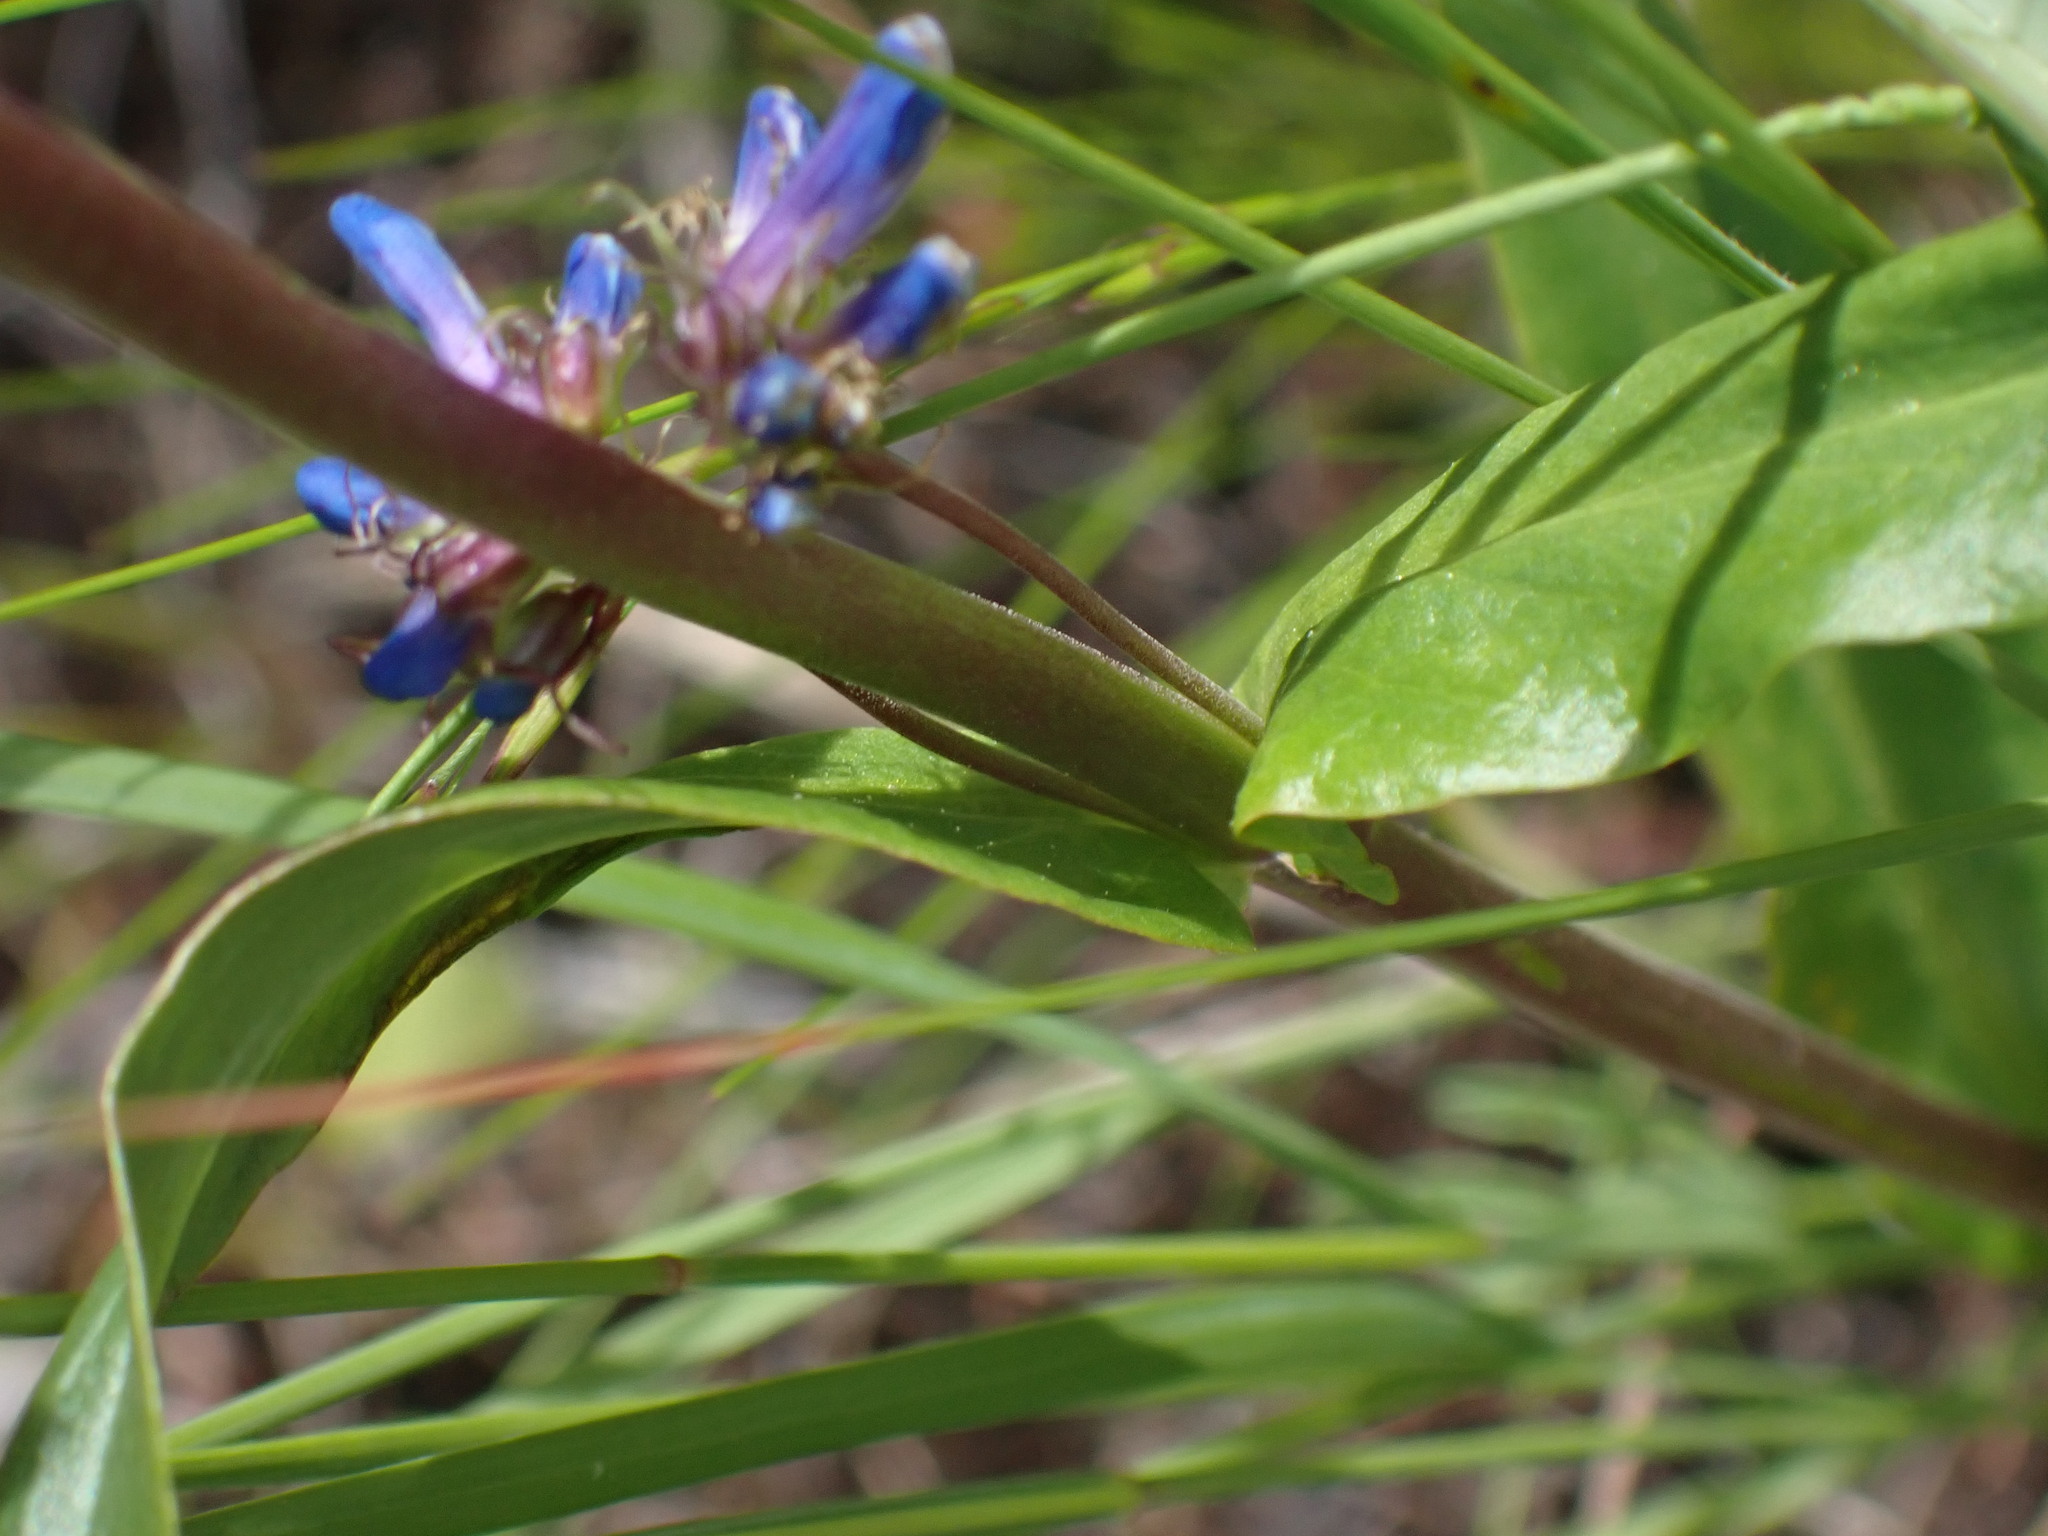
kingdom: Plantae
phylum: Tracheophyta
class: Magnoliopsida
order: Lamiales
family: Plantaginaceae
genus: Penstemon
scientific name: Penstemon procerus
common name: Small-flower penstemon
